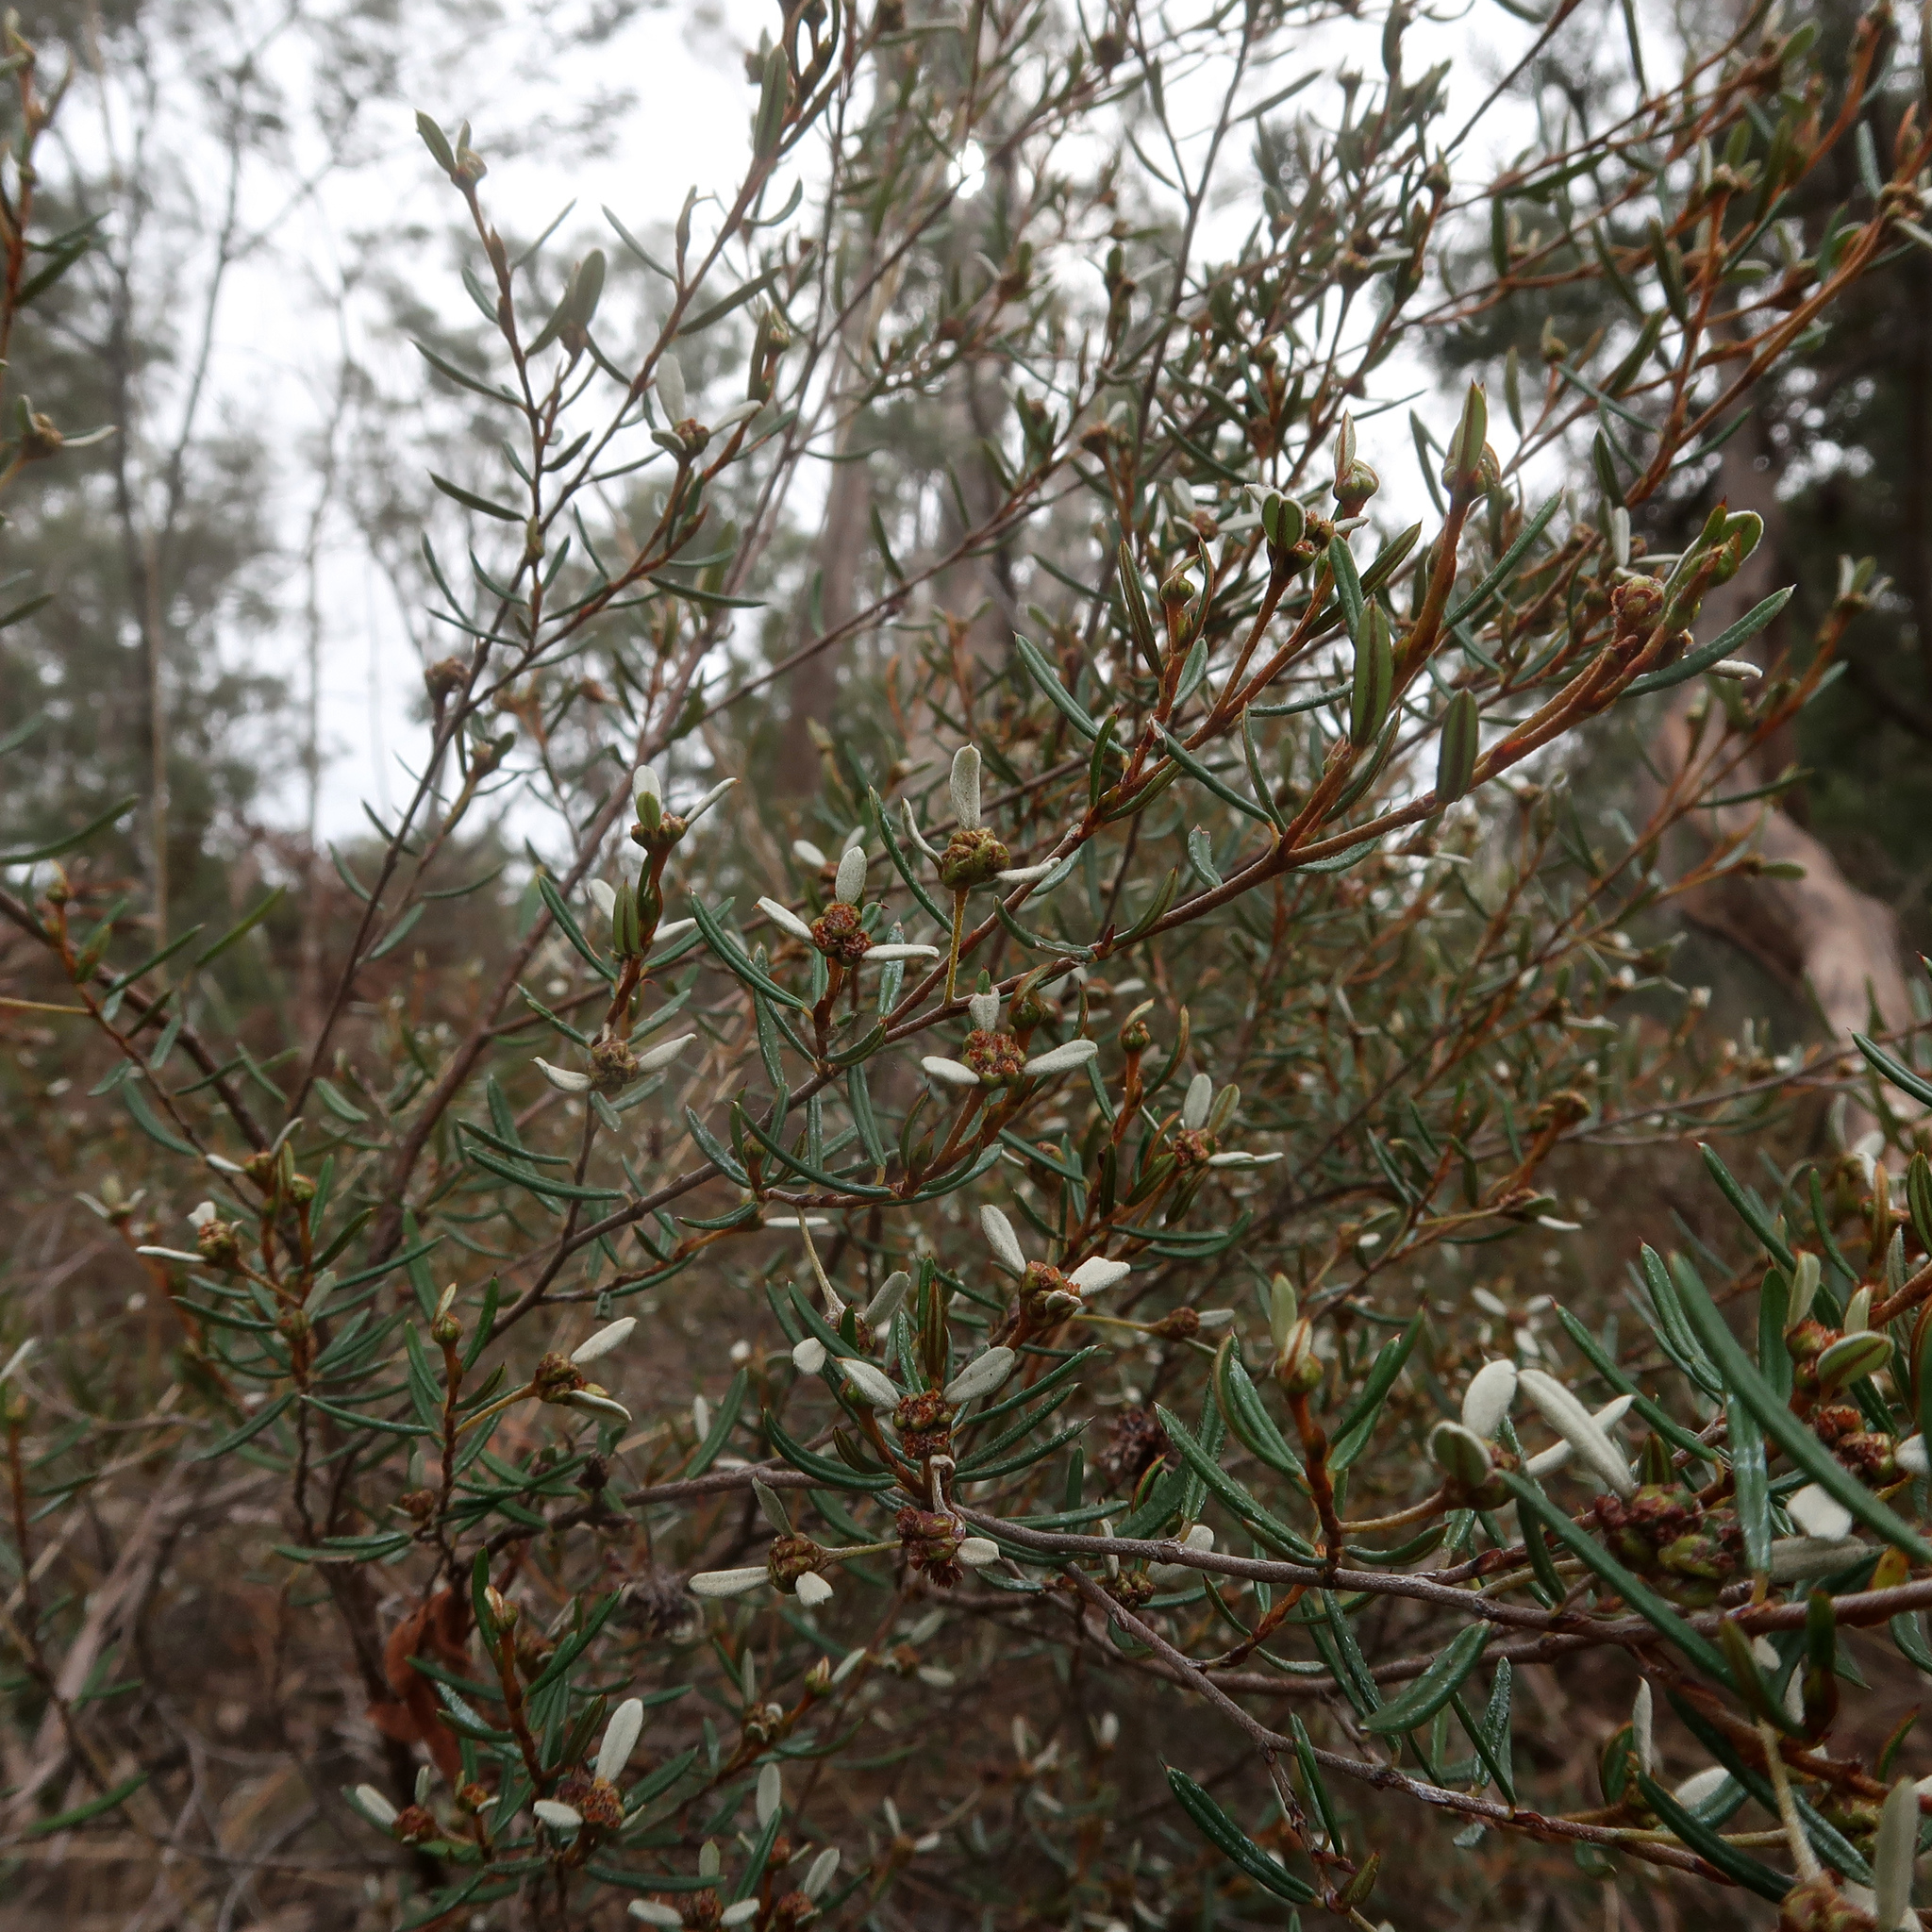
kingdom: Plantae
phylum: Tracheophyta
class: Magnoliopsida
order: Rosales
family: Rhamnaceae
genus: Spyridium
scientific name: Spyridium vexilliferum
